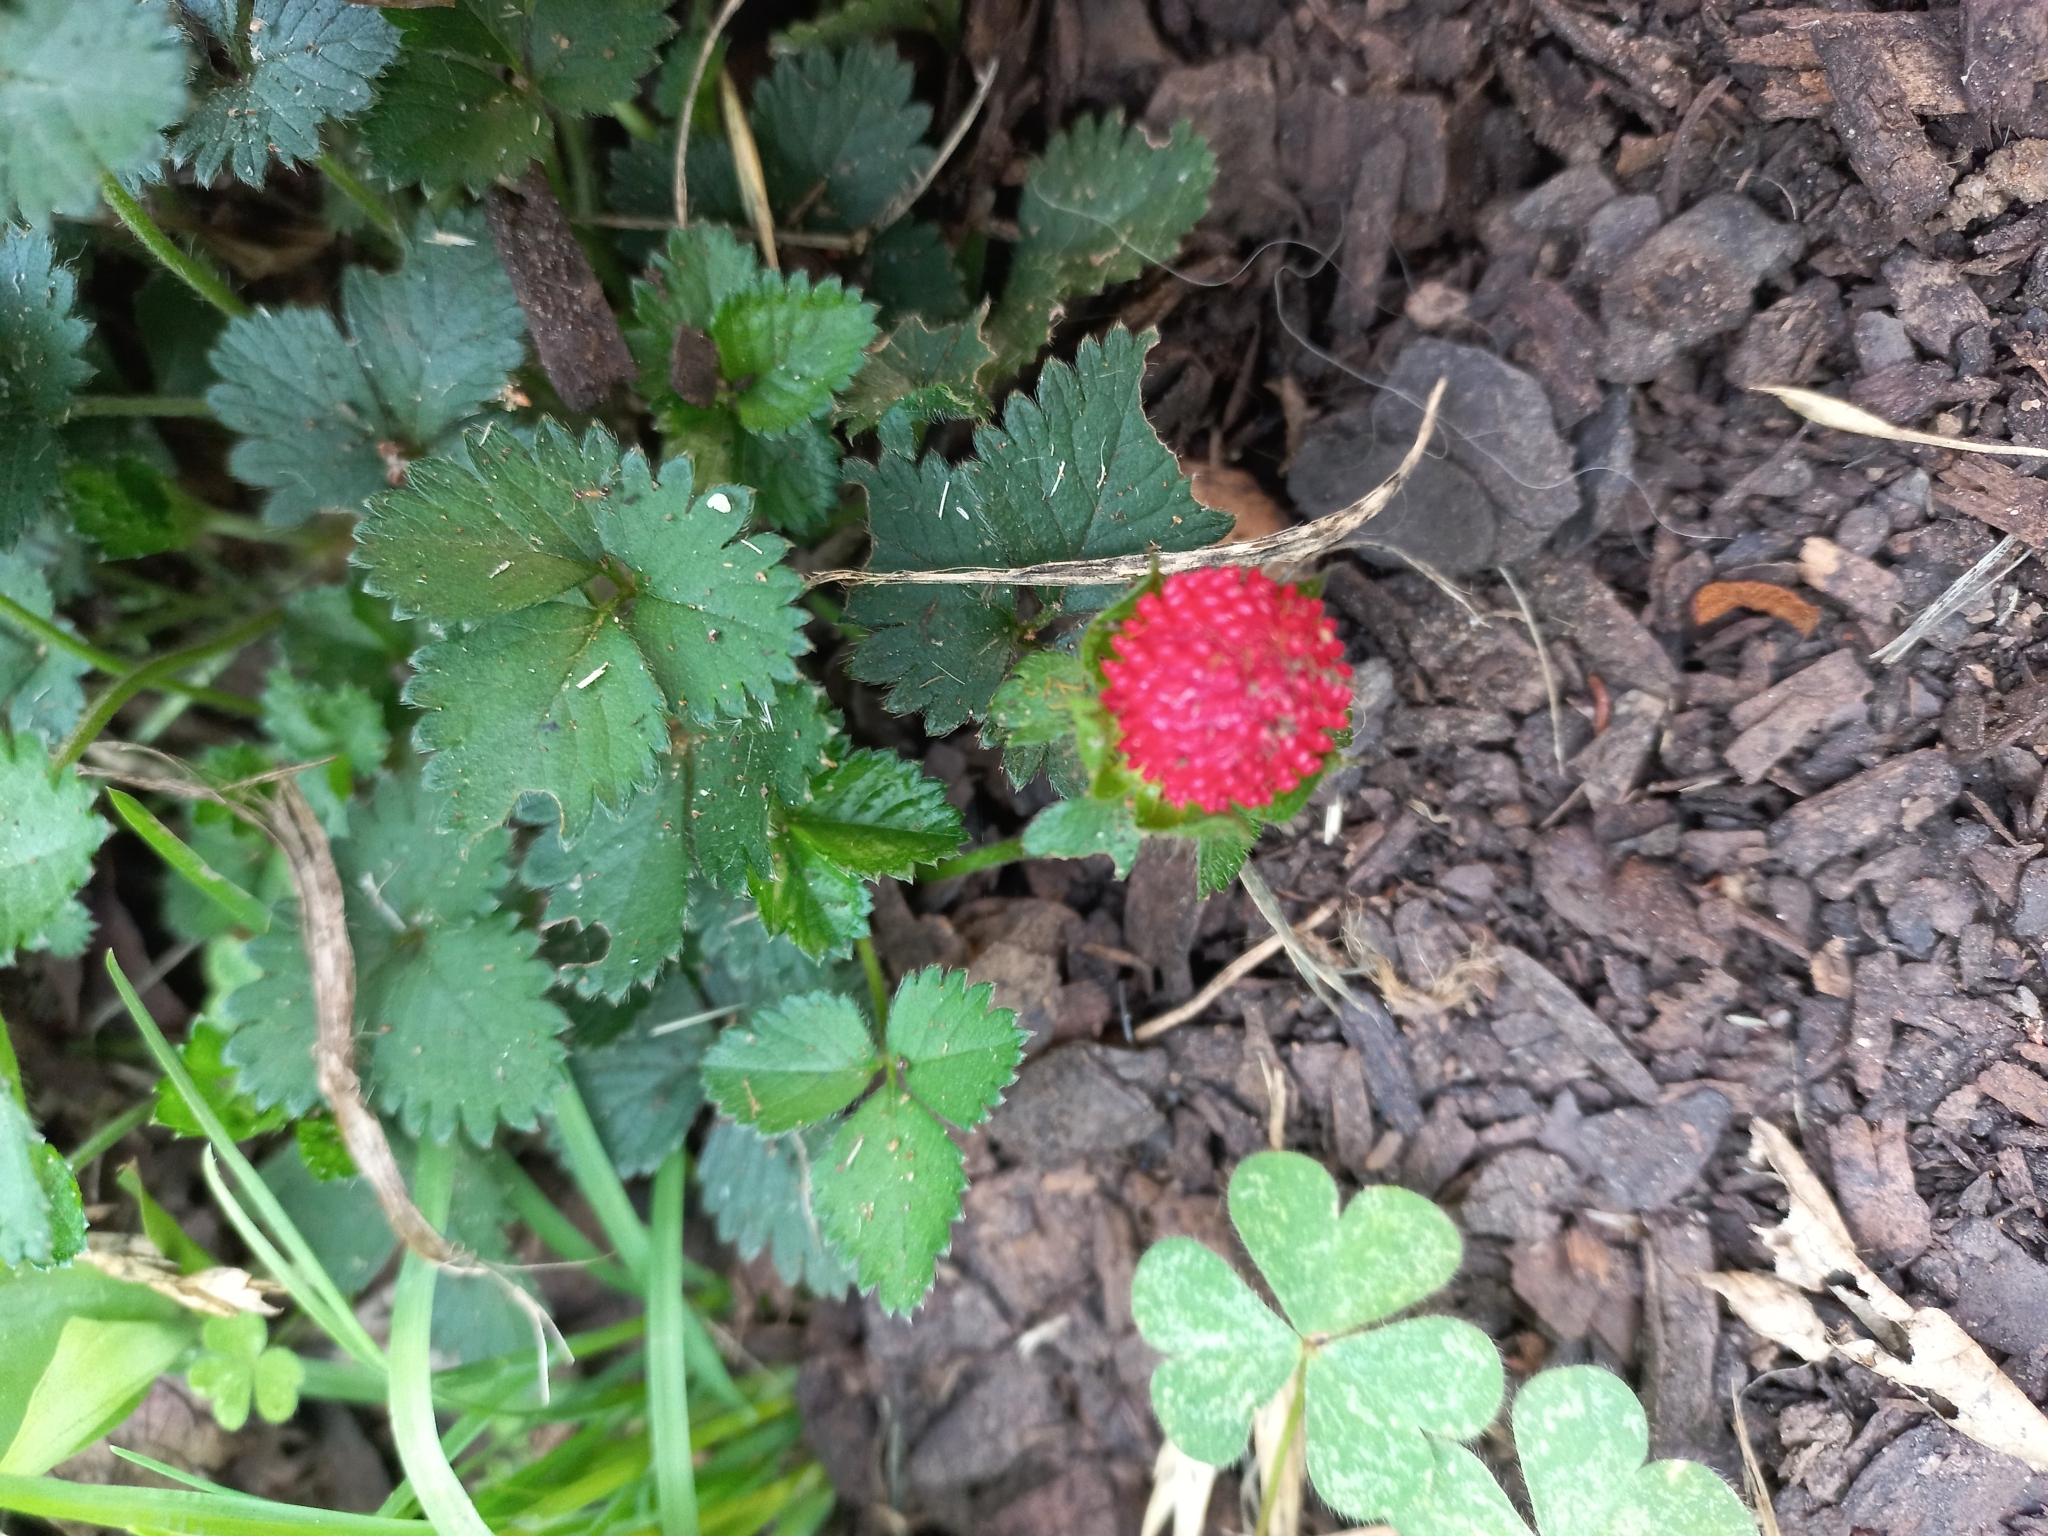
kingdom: Plantae
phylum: Tracheophyta
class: Magnoliopsida
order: Rosales
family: Rosaceae
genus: Potentilla
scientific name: Potentilla indica
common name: Yellow-flowered strawberry
